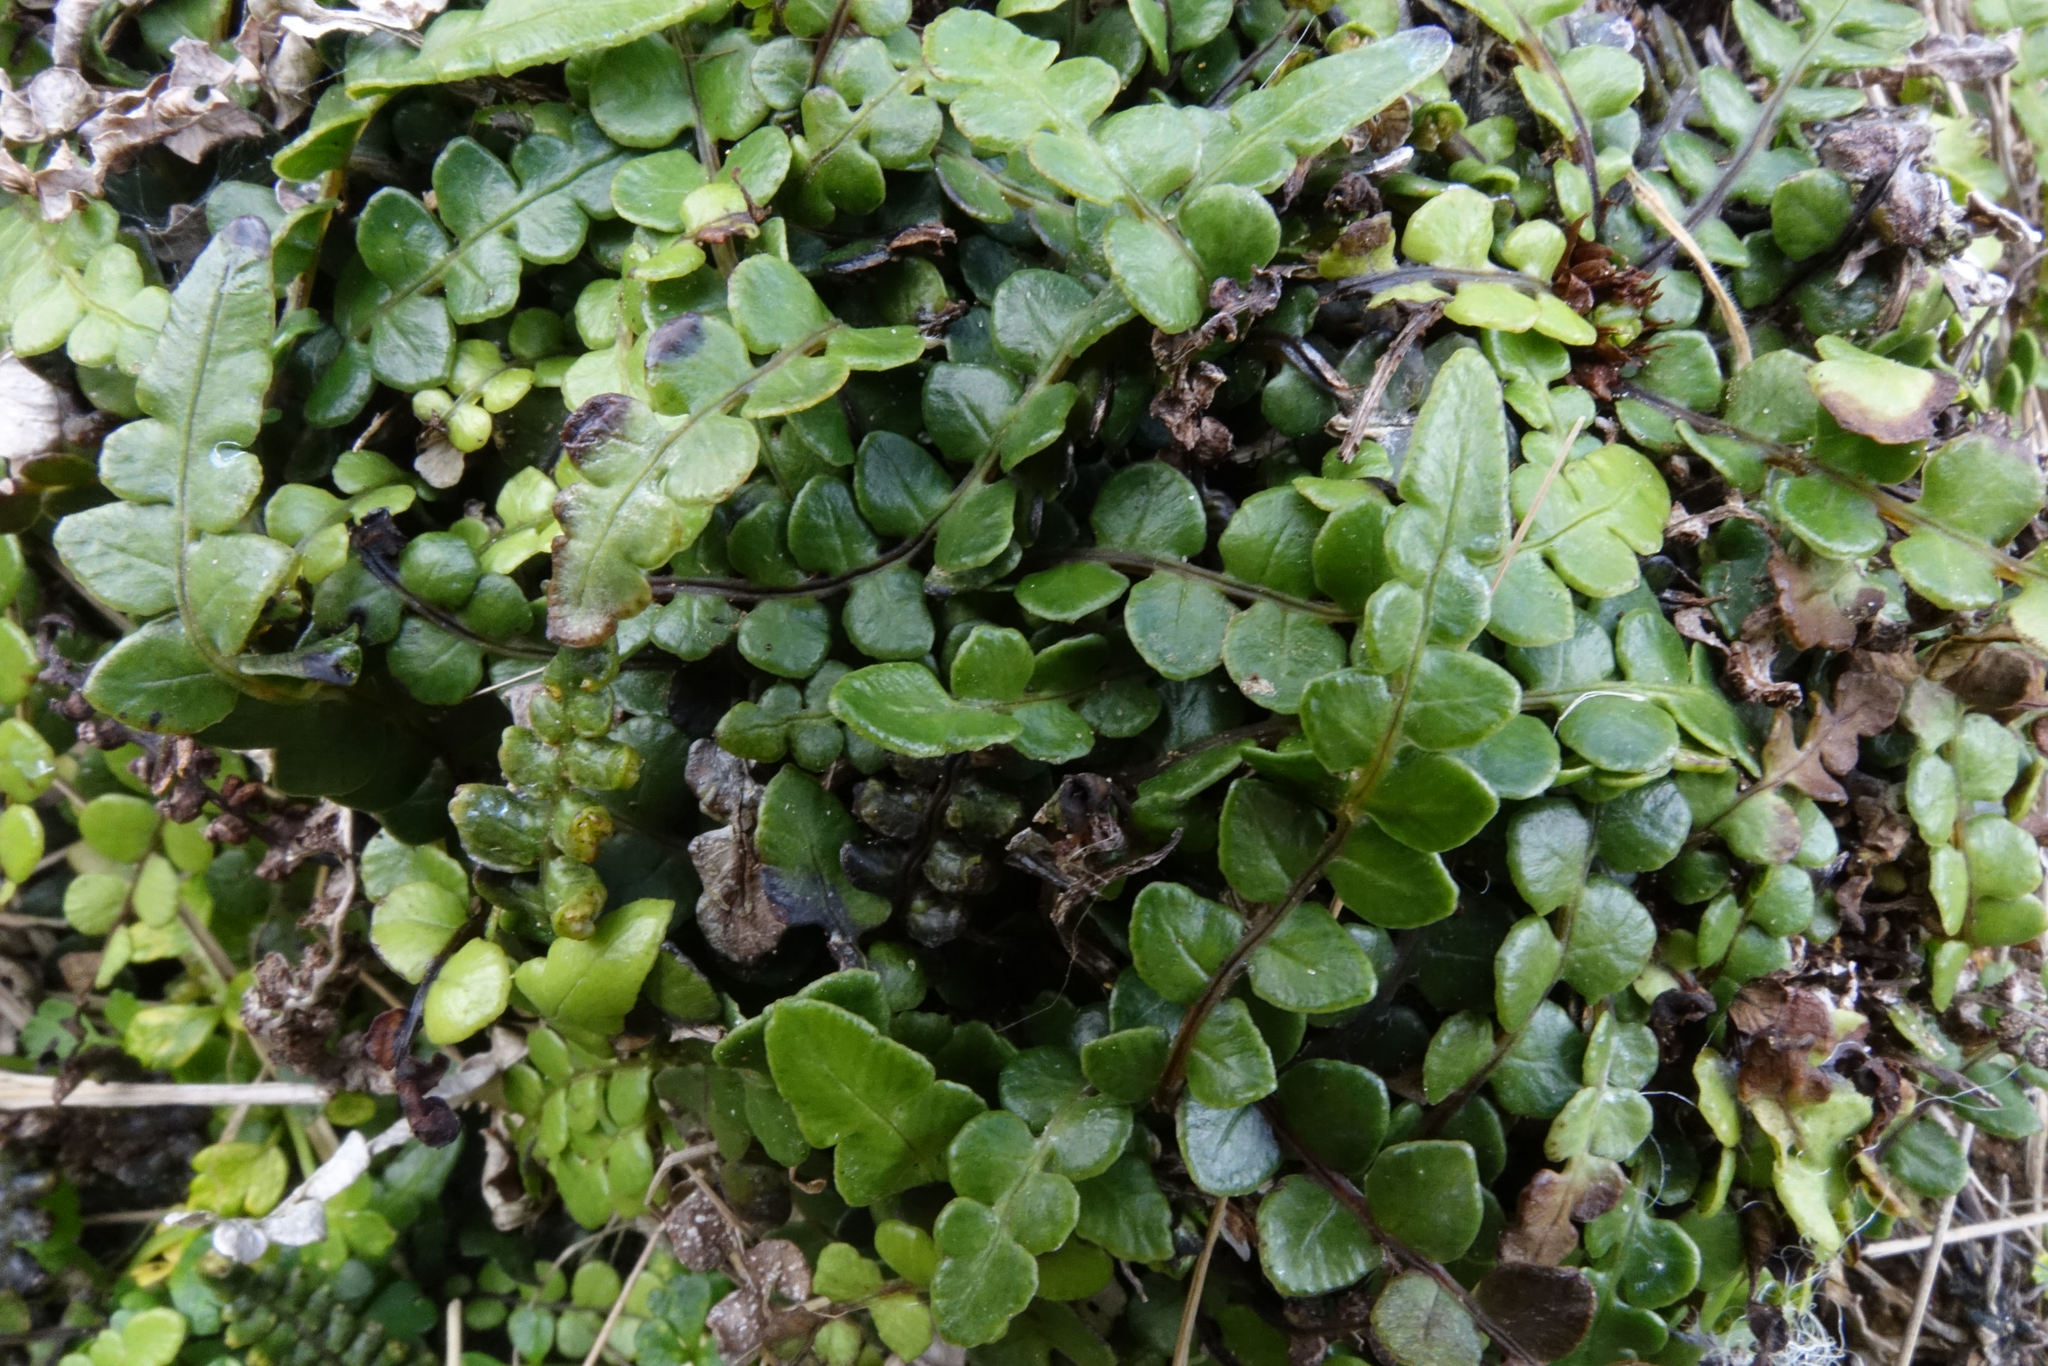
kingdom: Plantae
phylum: Tracheophyta
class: Polypodiopsida
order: Polypodiales
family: Blechnaceae
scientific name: Blechnaceae
